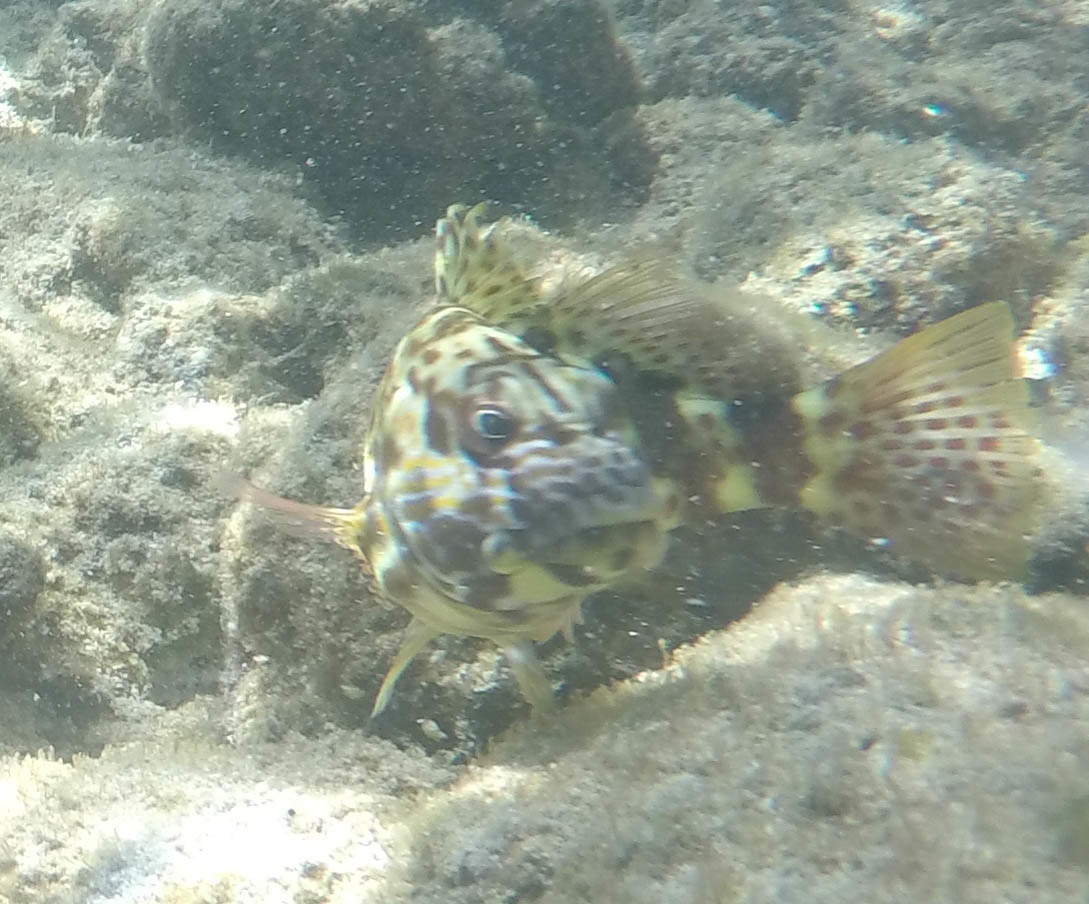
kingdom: Animalia
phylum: Chordata
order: Perciformes
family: Cirrhitidae
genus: Cirrhitus
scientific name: Cirrhitus pinnulatus
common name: Stocky hawkfish
